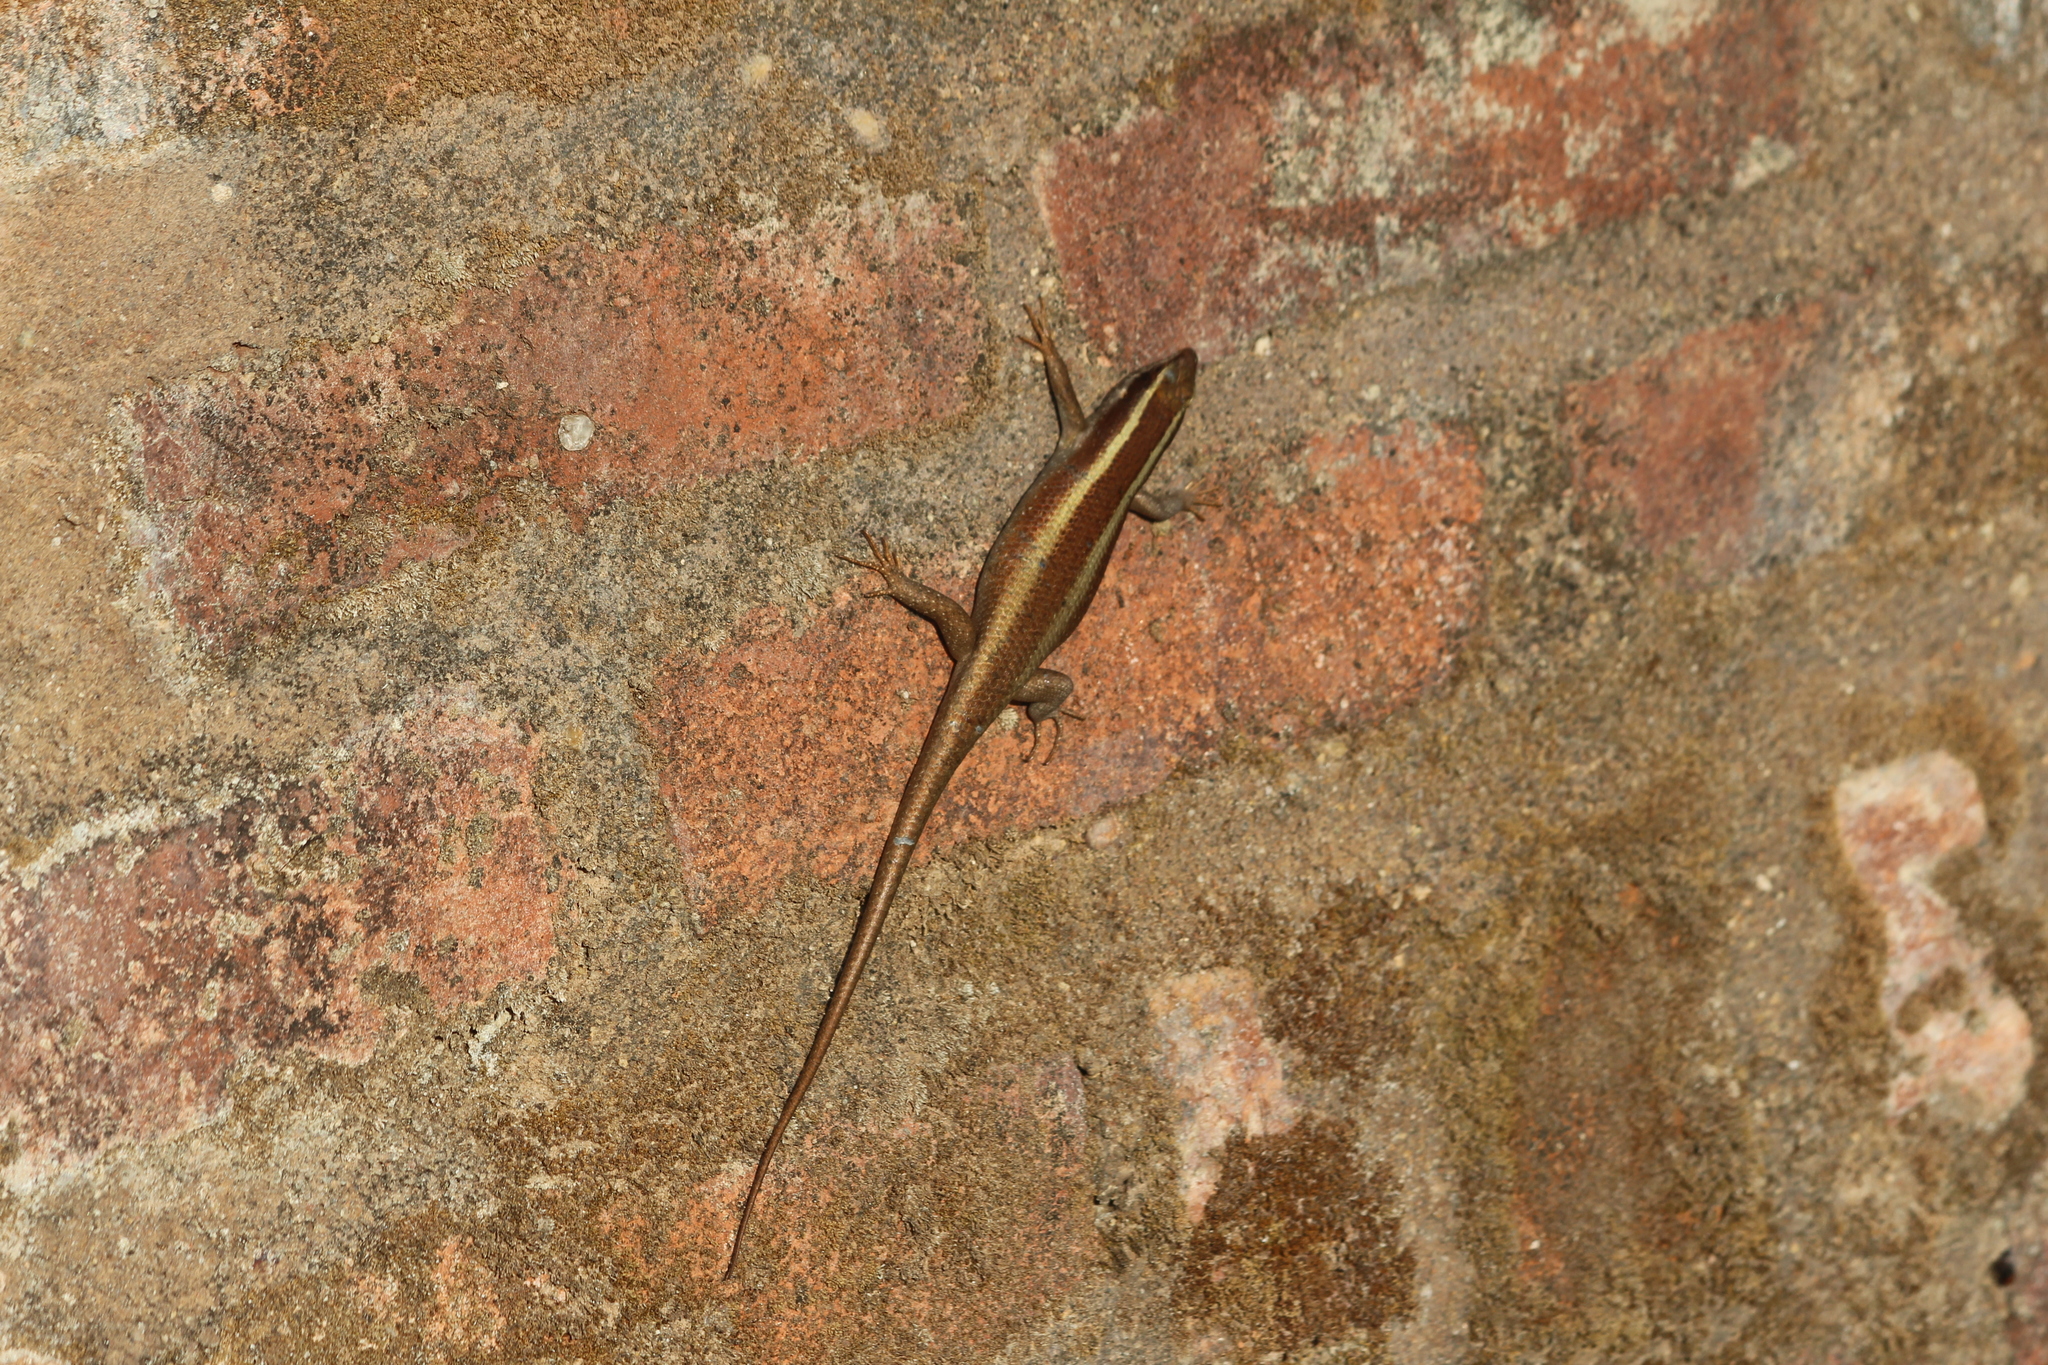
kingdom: Animalia
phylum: Chordata
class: Squamata
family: Scincidae
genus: Trachylepis
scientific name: Trachylepis striata
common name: African striped mabuya
